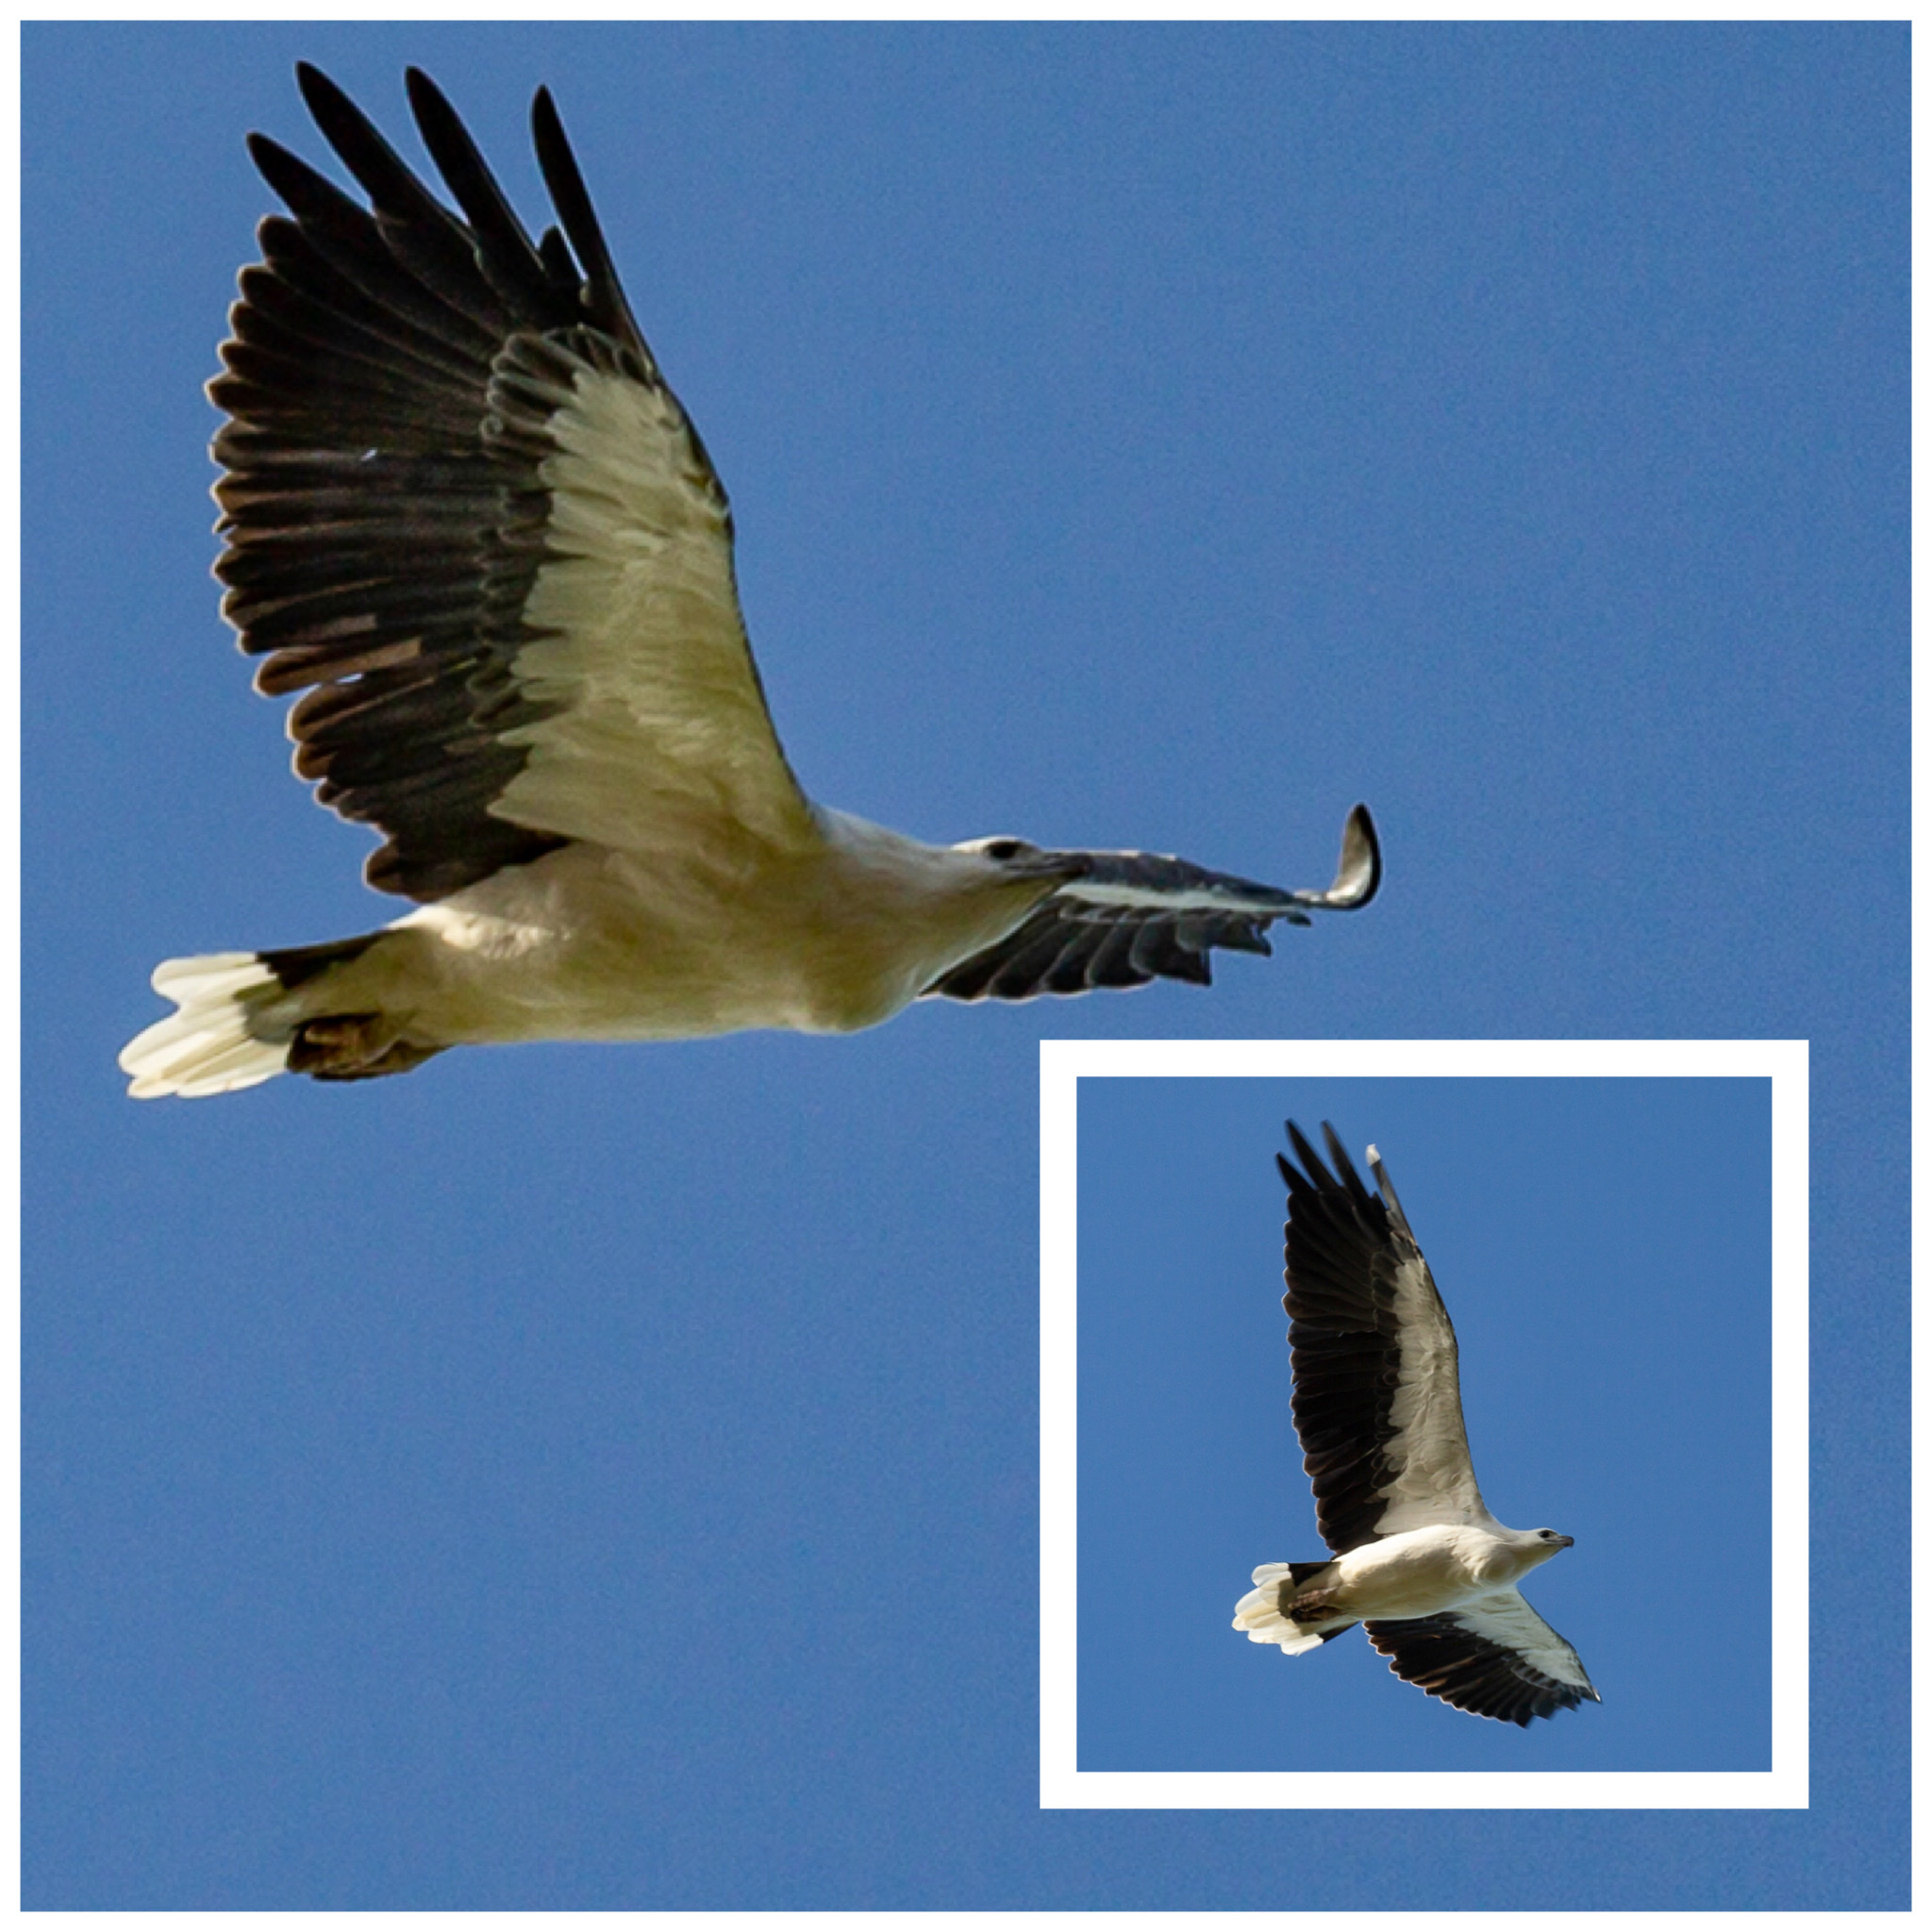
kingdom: Animalia
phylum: Chordata
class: Aves
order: Accipitriformes
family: Accipitridae
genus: Haliaeetus
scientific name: Haliaeetus leucogaster
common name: White-bellied sea eagle
